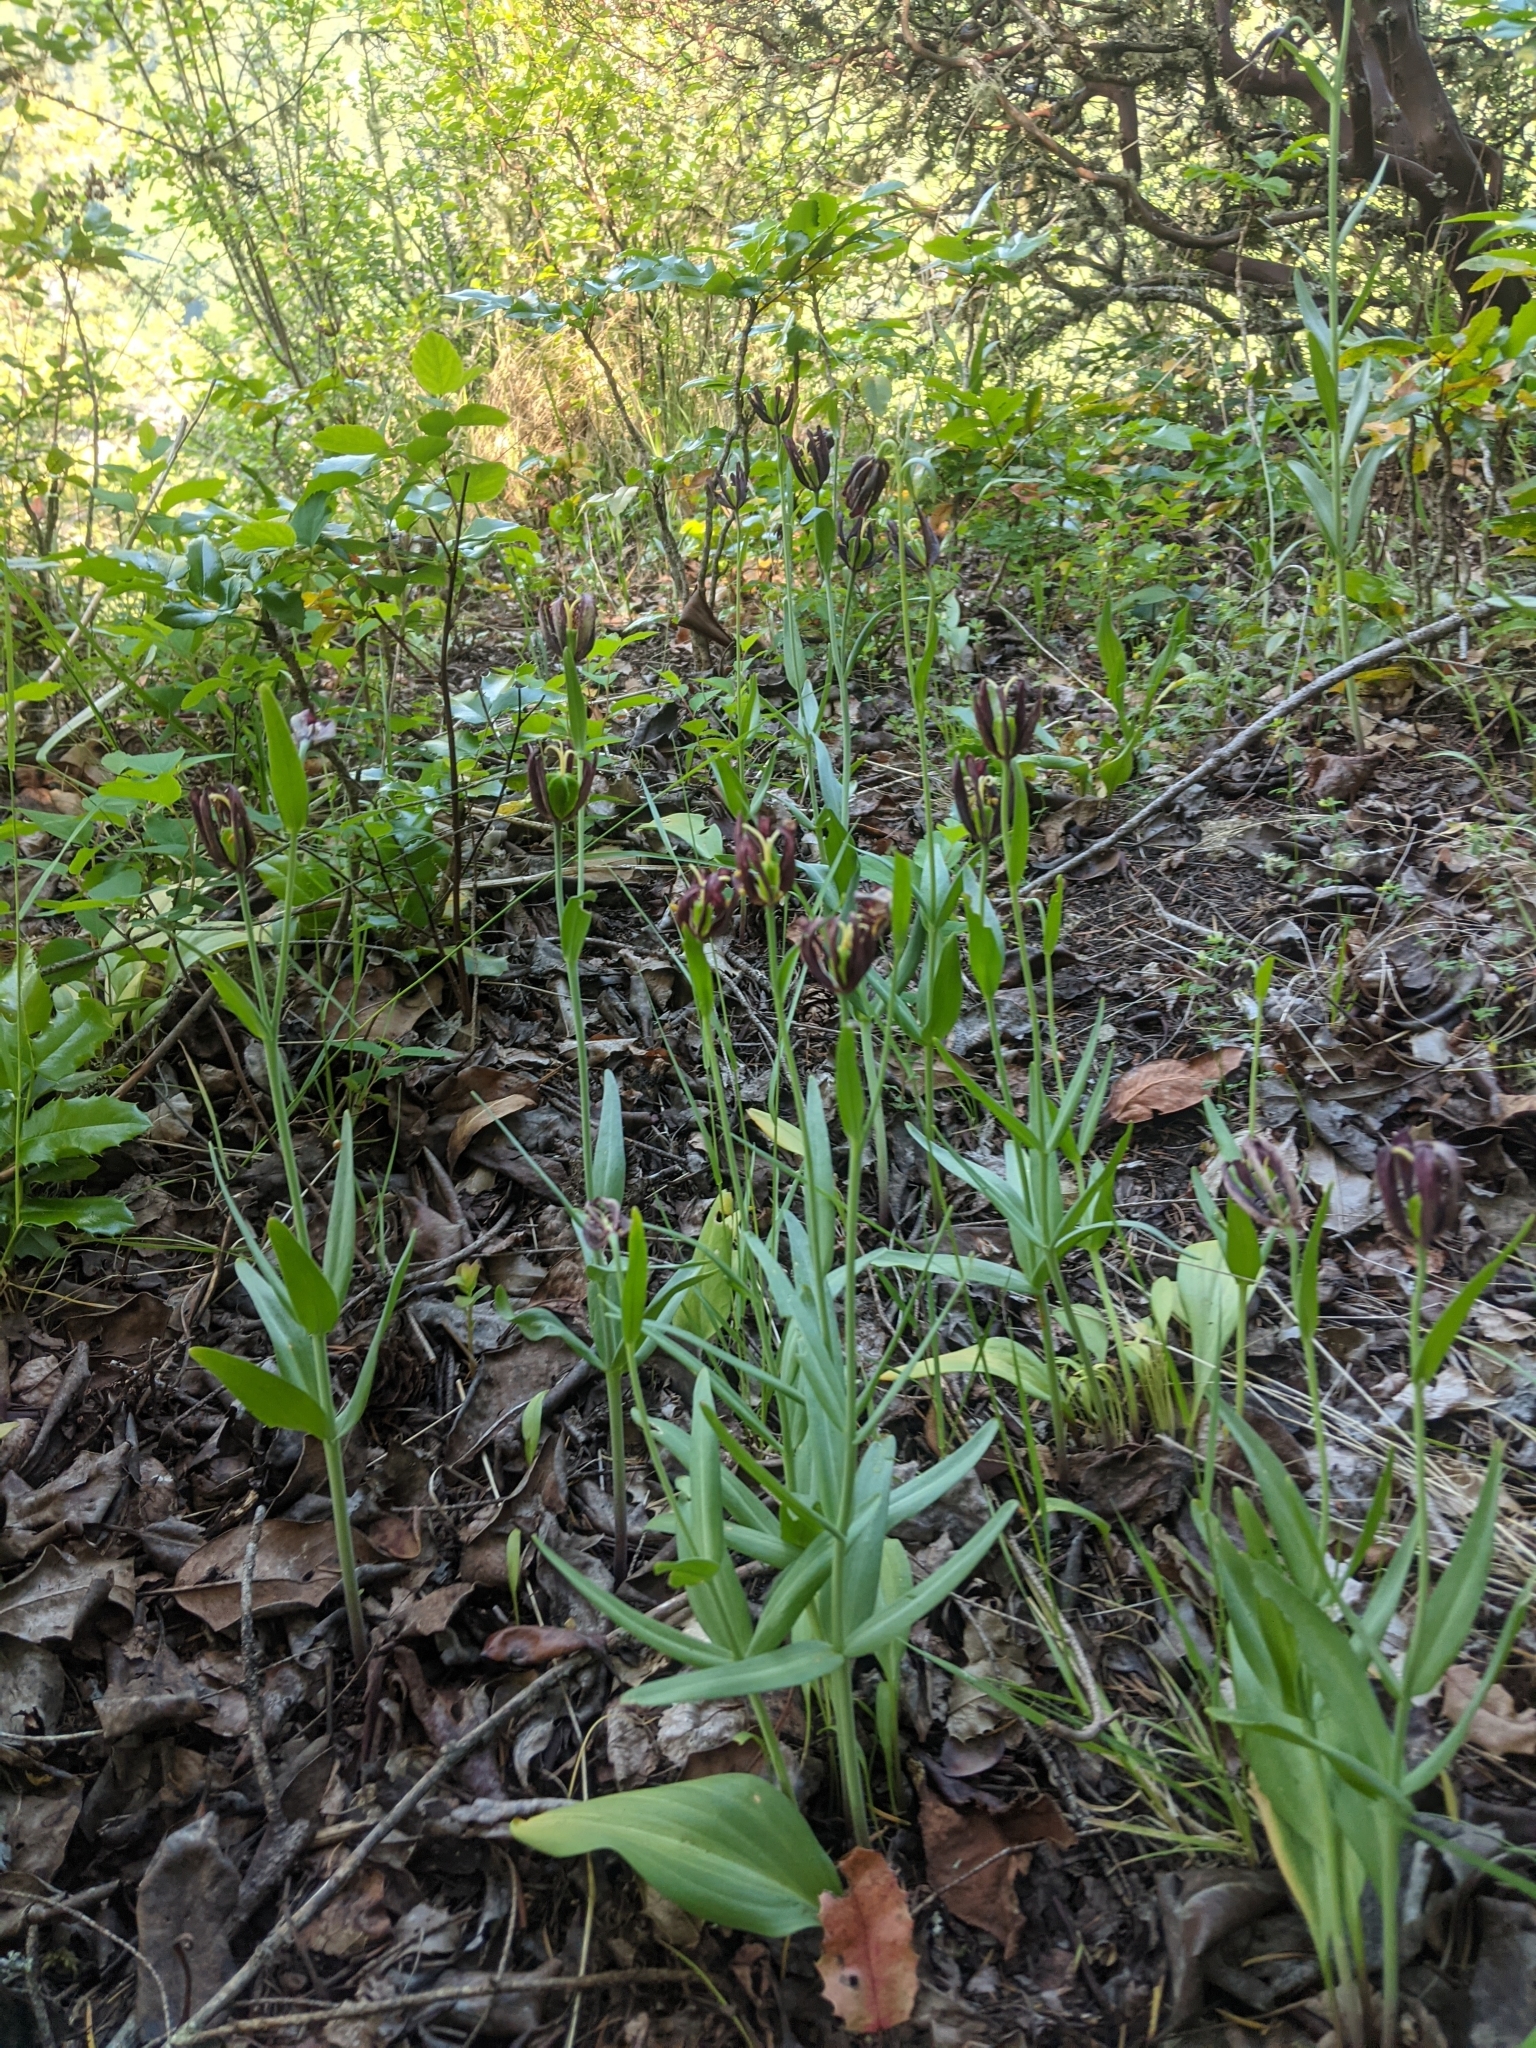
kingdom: Plantae
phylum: Tracheophyta
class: Liliopsida
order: Liliales
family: Liliaceae
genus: Fritillaria
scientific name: Fritillaria affinis
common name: Ojai fritillary
